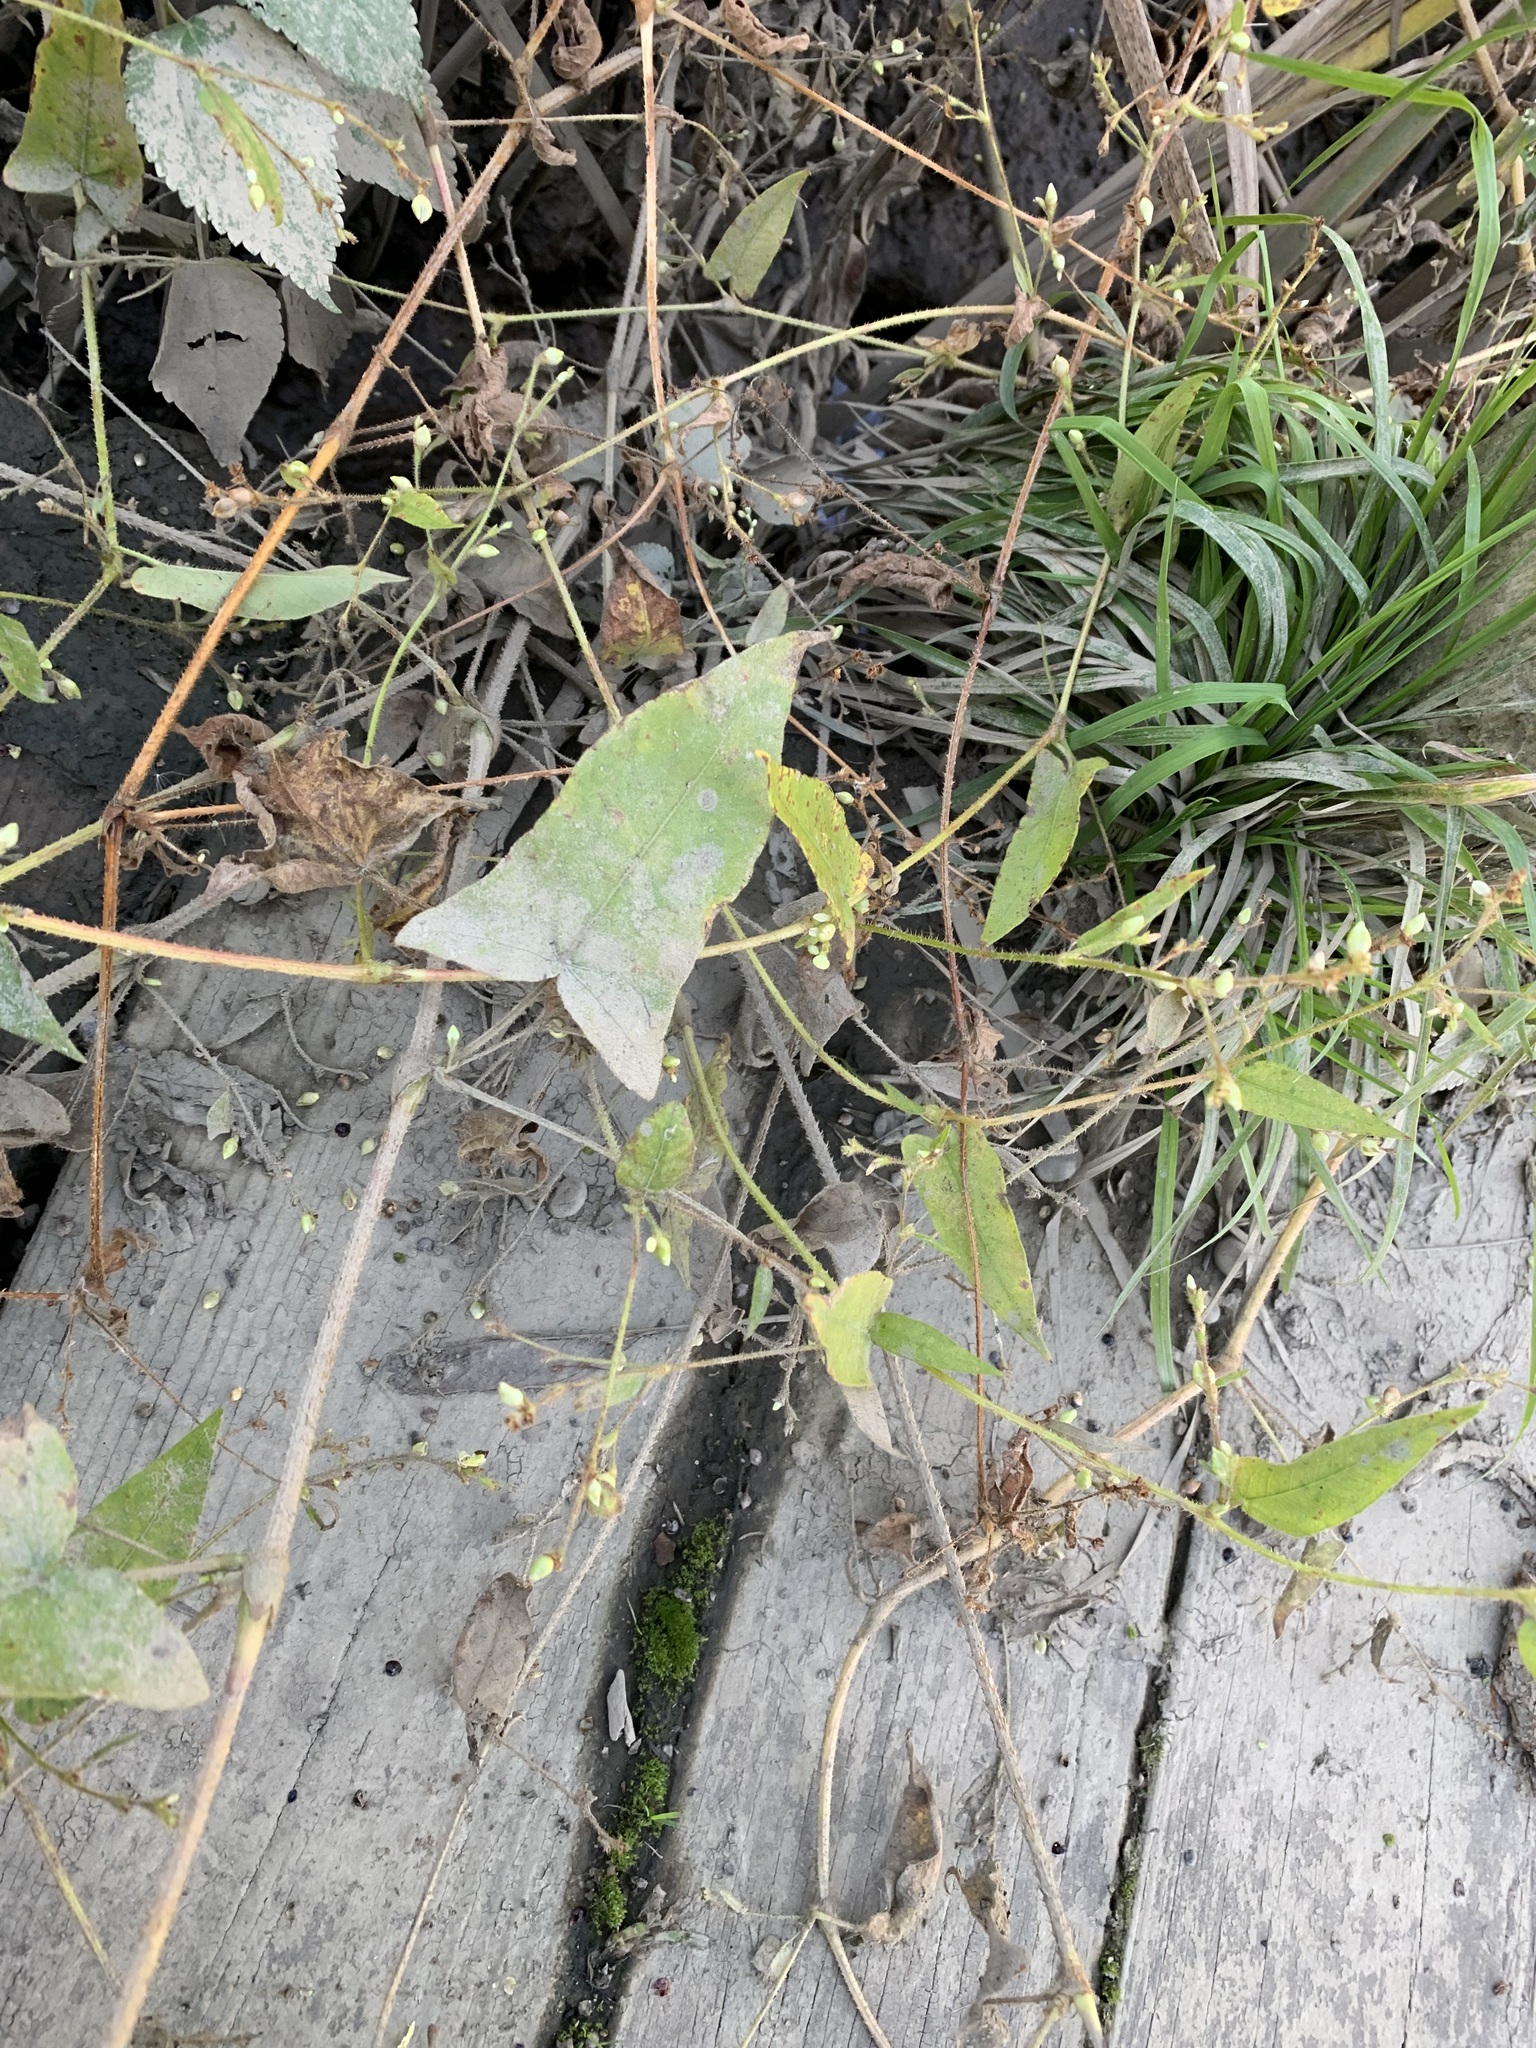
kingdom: Plantae
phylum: Tracheophyta
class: Magnoliopsida
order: Caryophyllales
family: Polygonaceae
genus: Persicaria
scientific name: Persicaria arifolia
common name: Halberd-leaved tear-thumb
